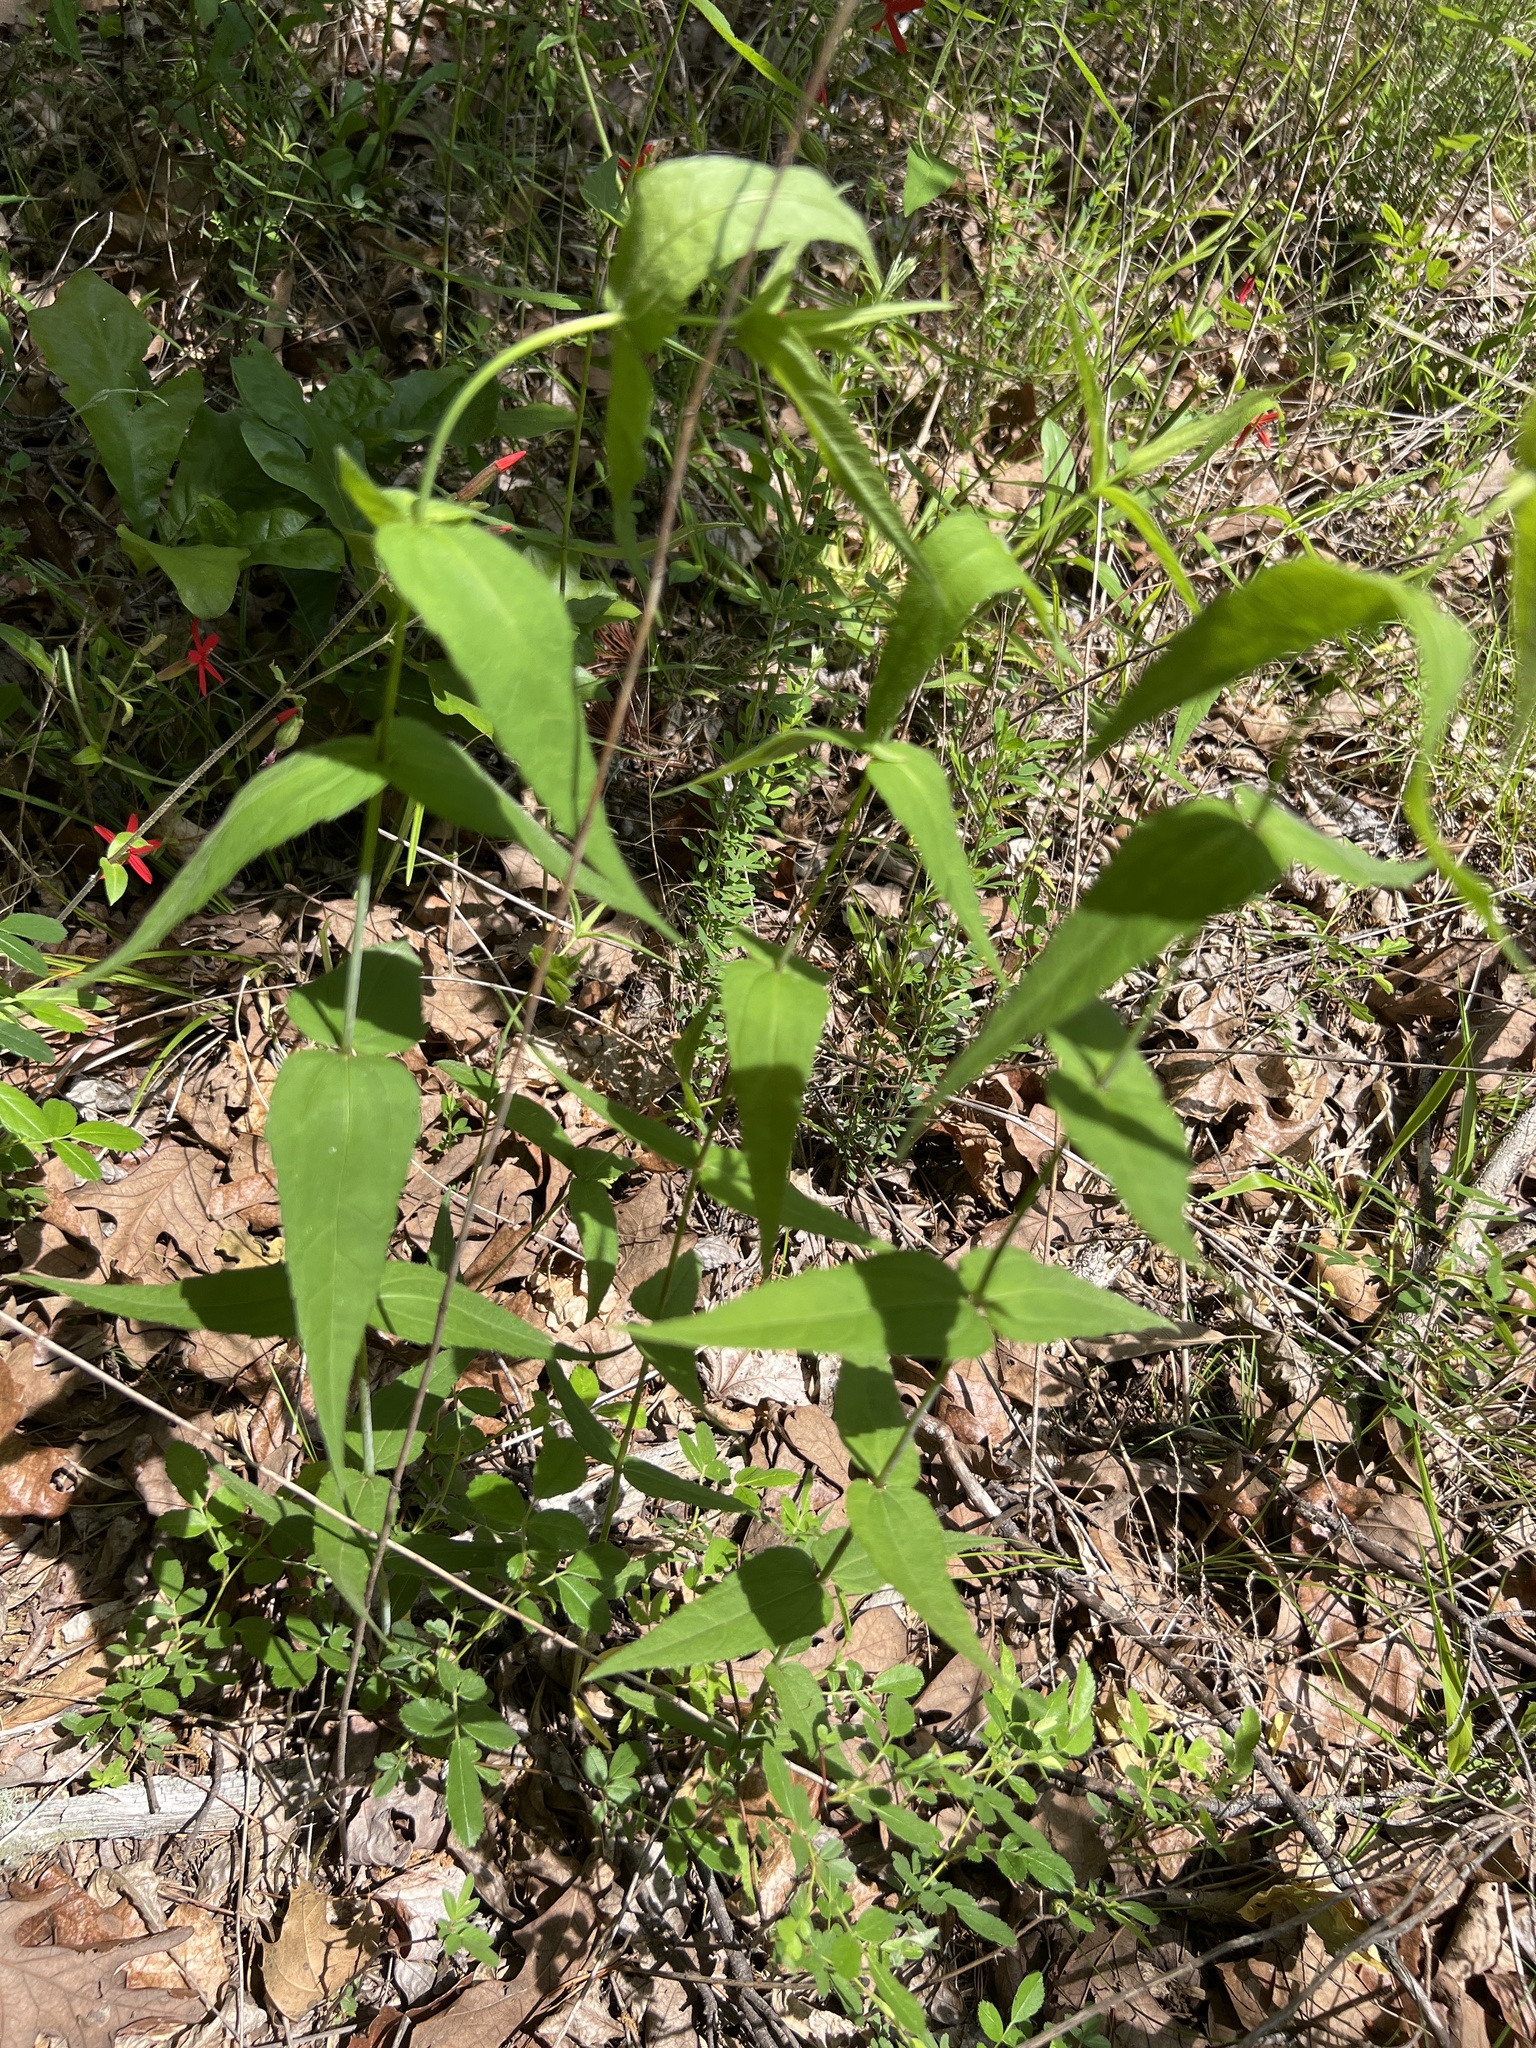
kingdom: Plantae
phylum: Tracheophyta
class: Magnoliopsida
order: Asterales
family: Asteraceae
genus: Helianthus
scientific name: Helianthus divaricatus
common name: Divergent sunflower
